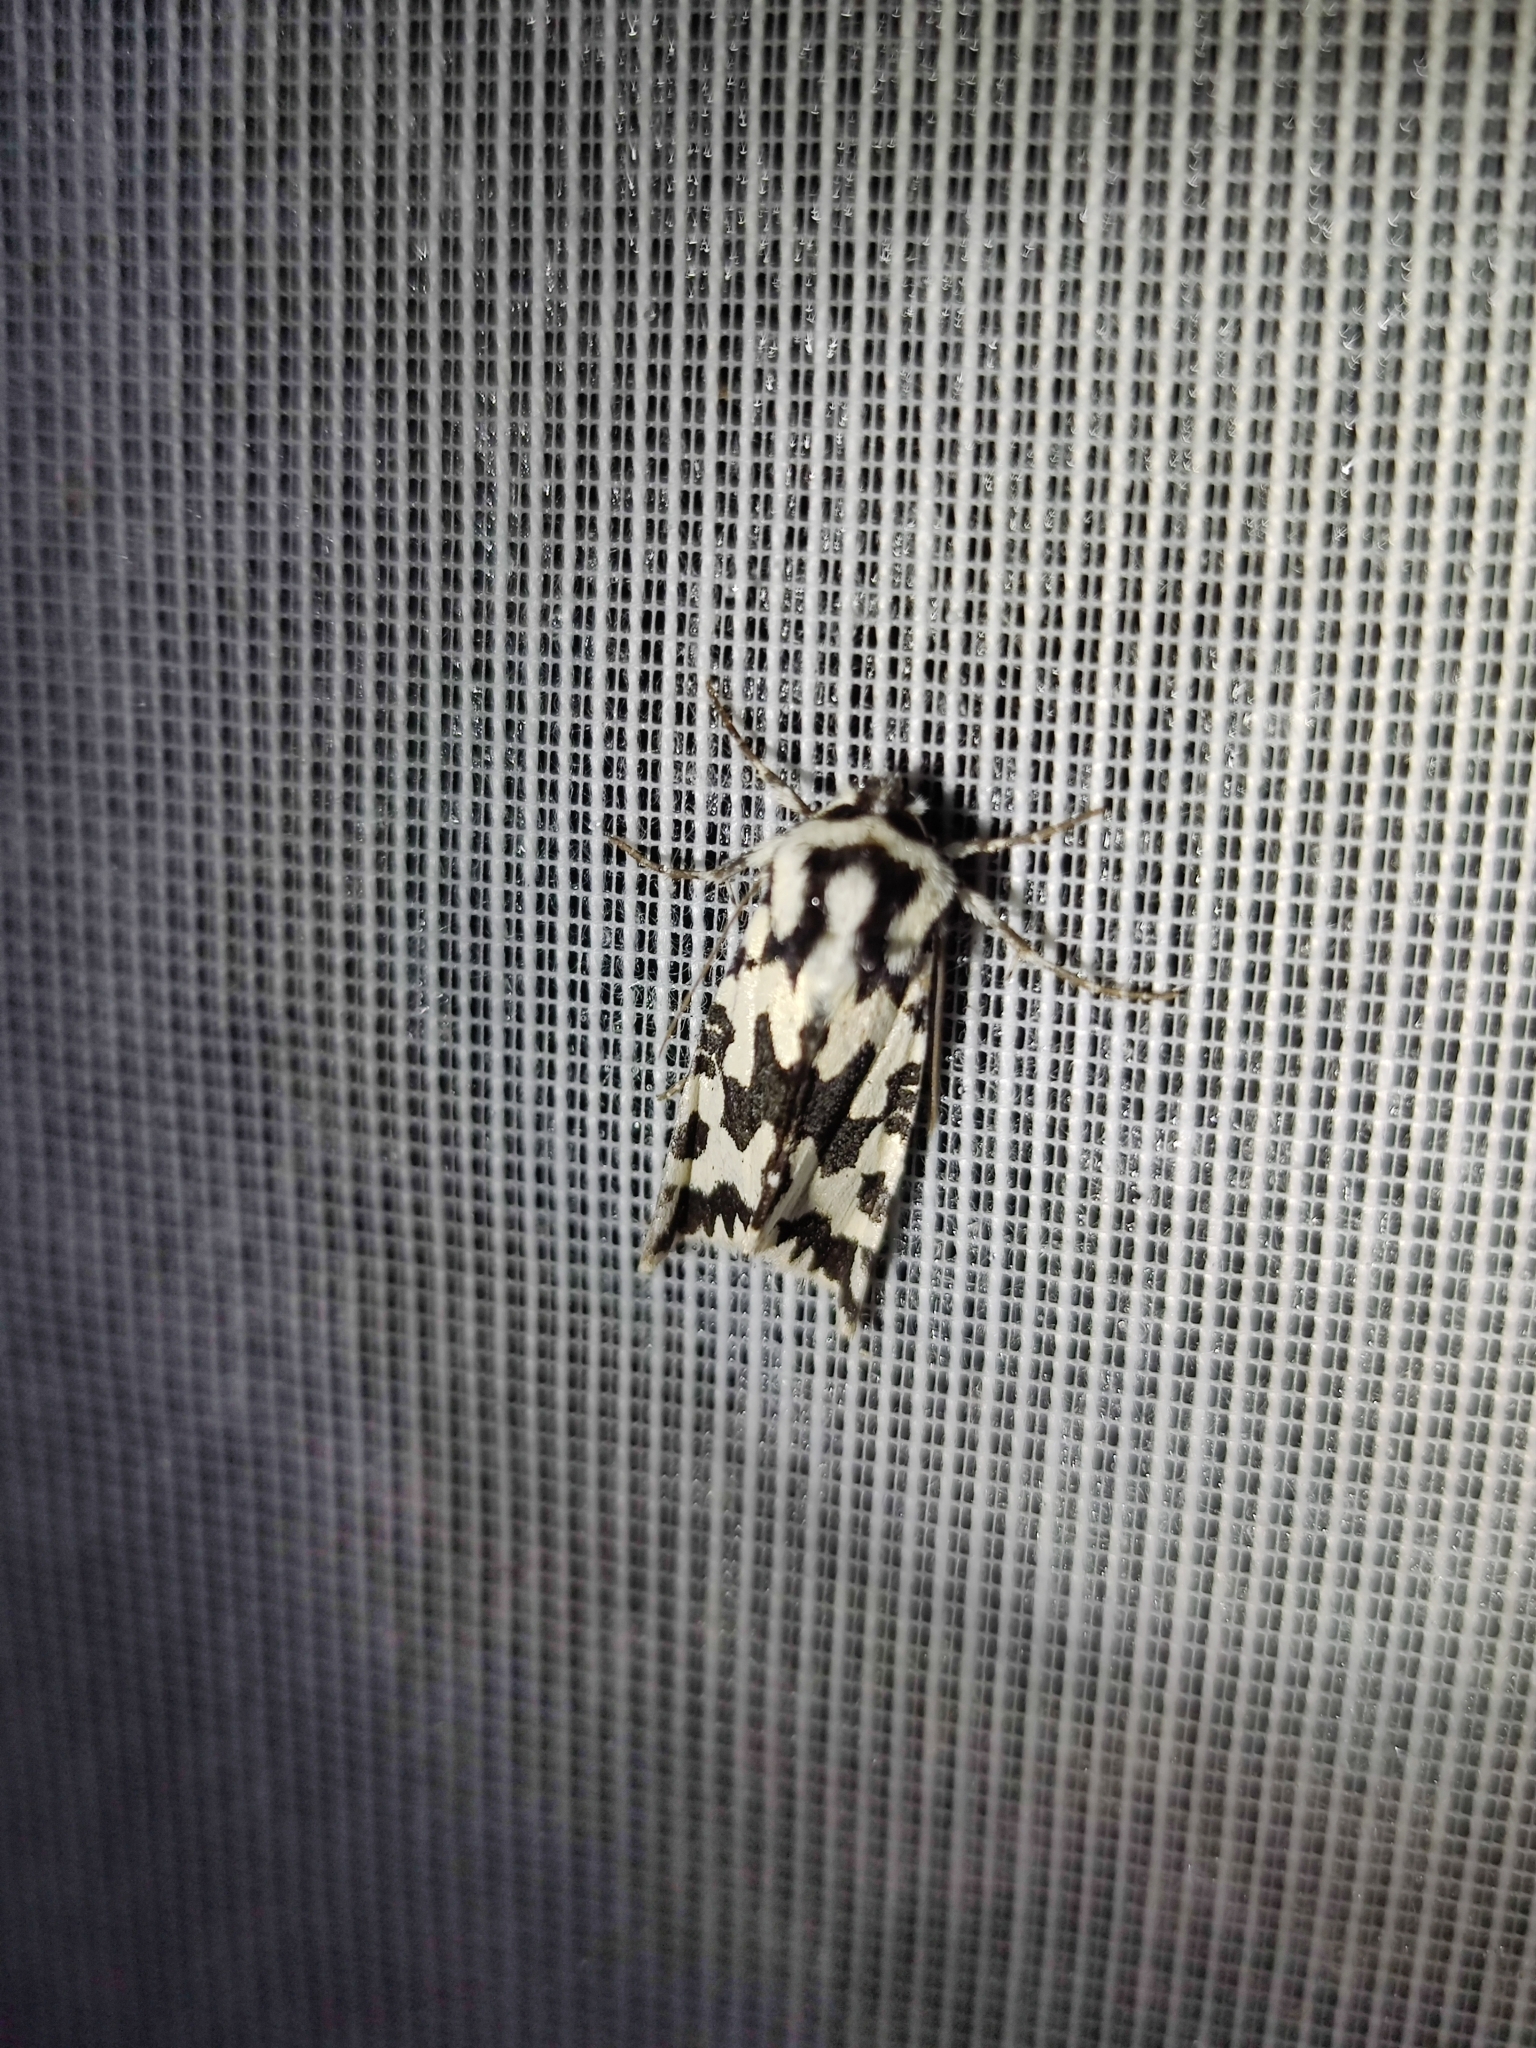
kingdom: Animalia
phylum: Arthropoda
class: Insecta
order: Lepidoptera
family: Noctuidae
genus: Phlogophora
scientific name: Phlogophora distorta
